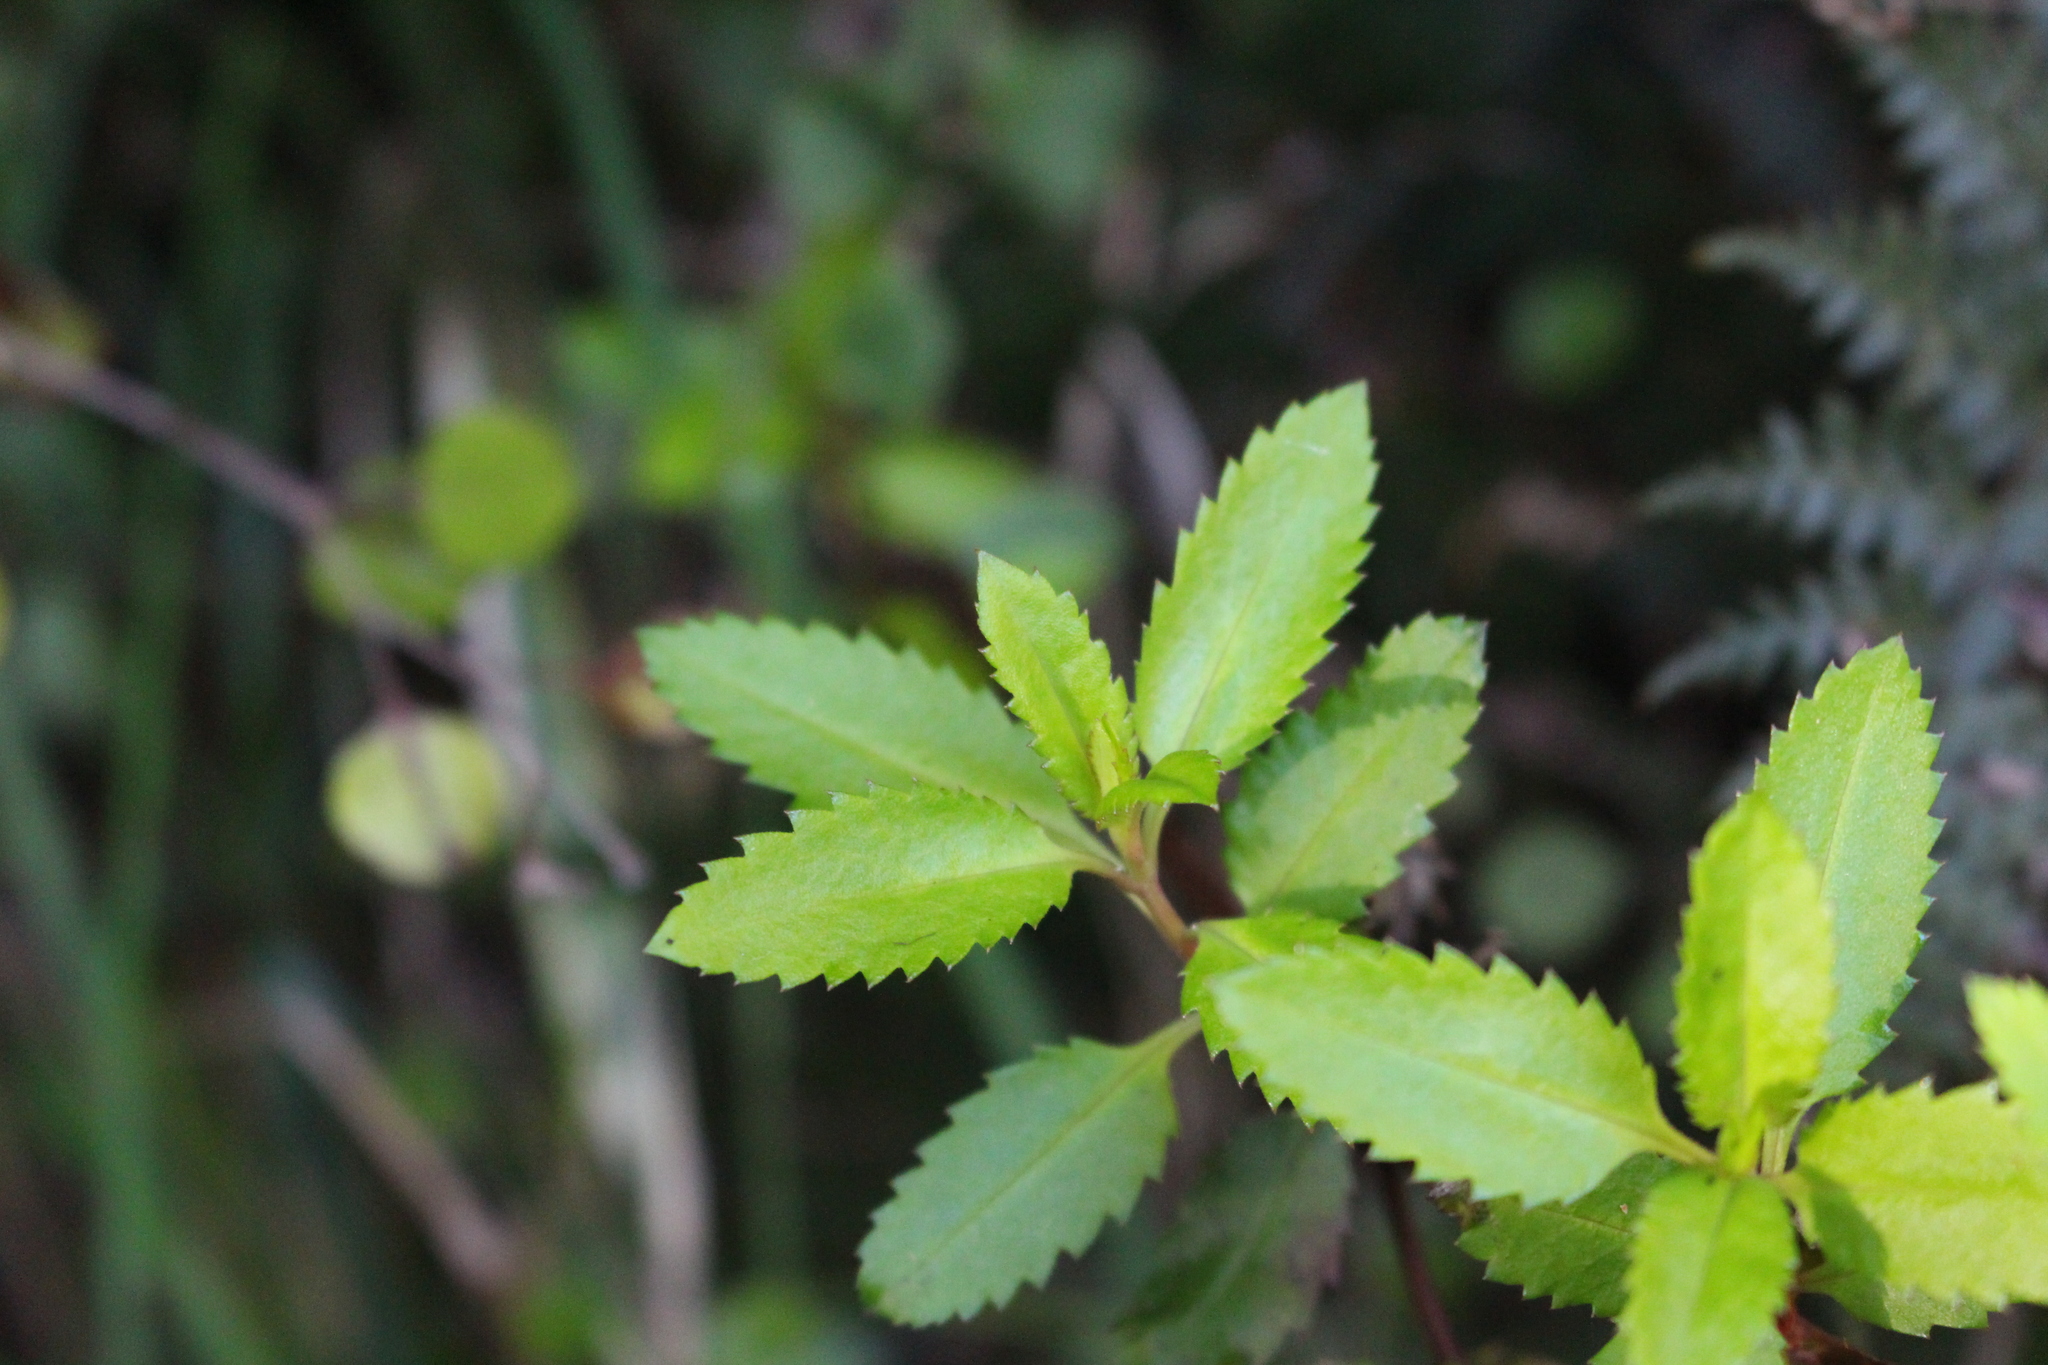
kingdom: Plantae
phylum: Tracheophyta
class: Magnoliopsida
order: Saxifragales
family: Haloragaceae
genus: Haloragis
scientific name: Haloragis erecta
